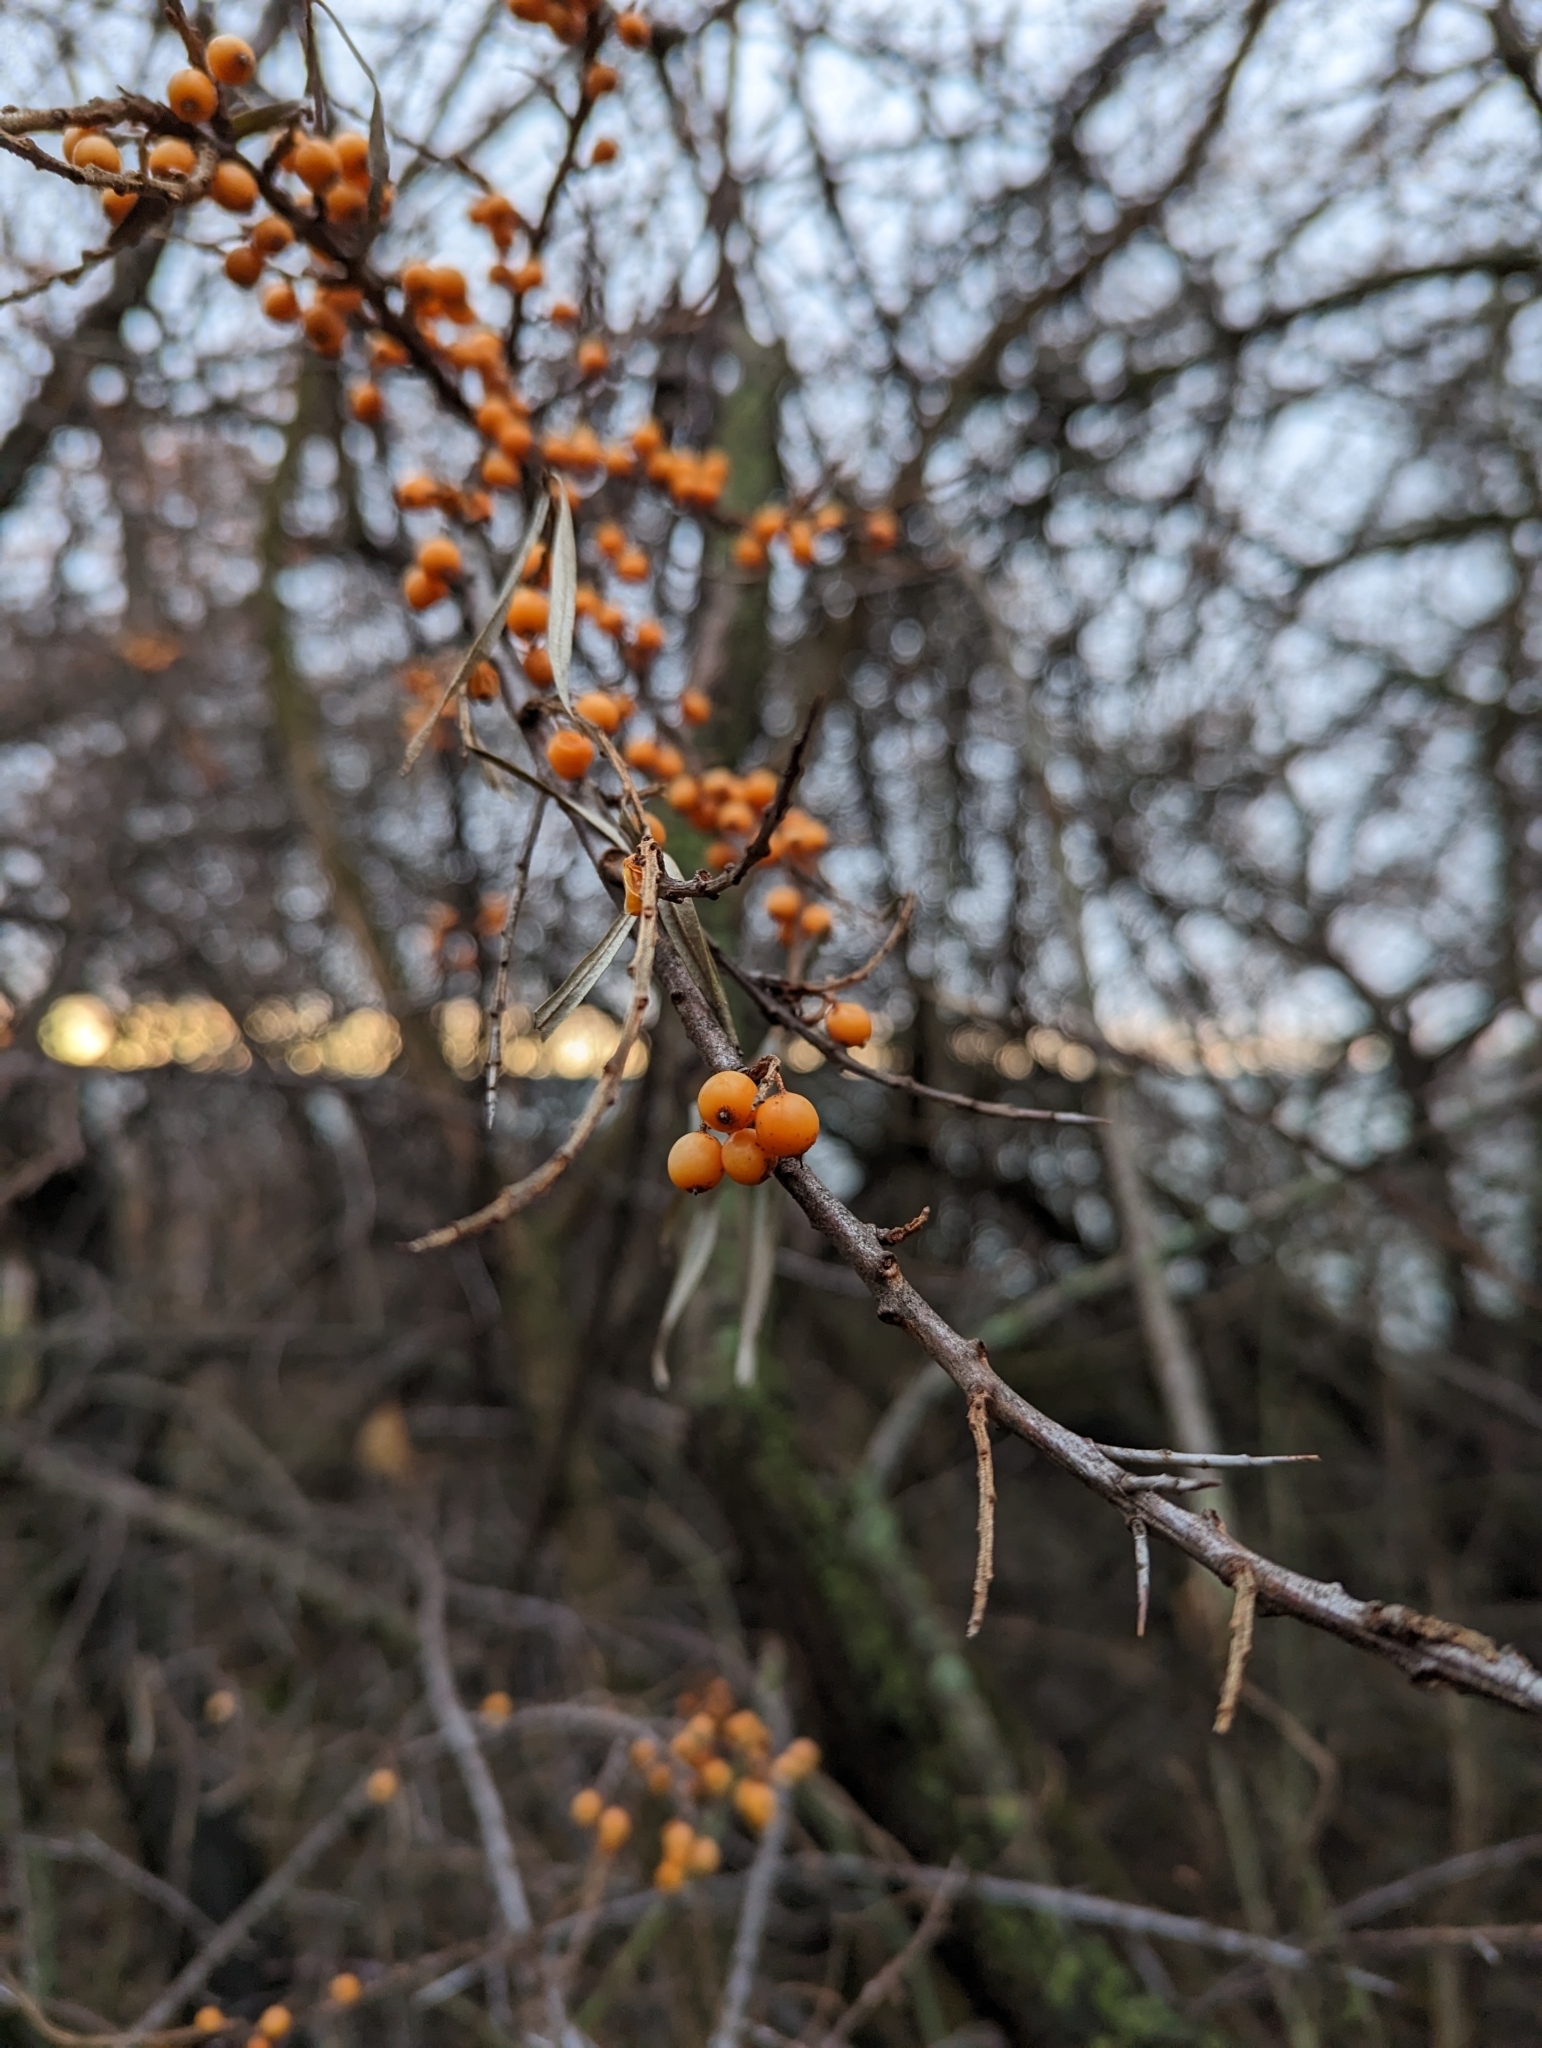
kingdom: Plantae
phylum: Tracheophyta
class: Magnoliopsida
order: Rosales
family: Elaeagnaceae
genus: Hippophae
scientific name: Hippophae rhamnoides
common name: Sea-buckthorn
